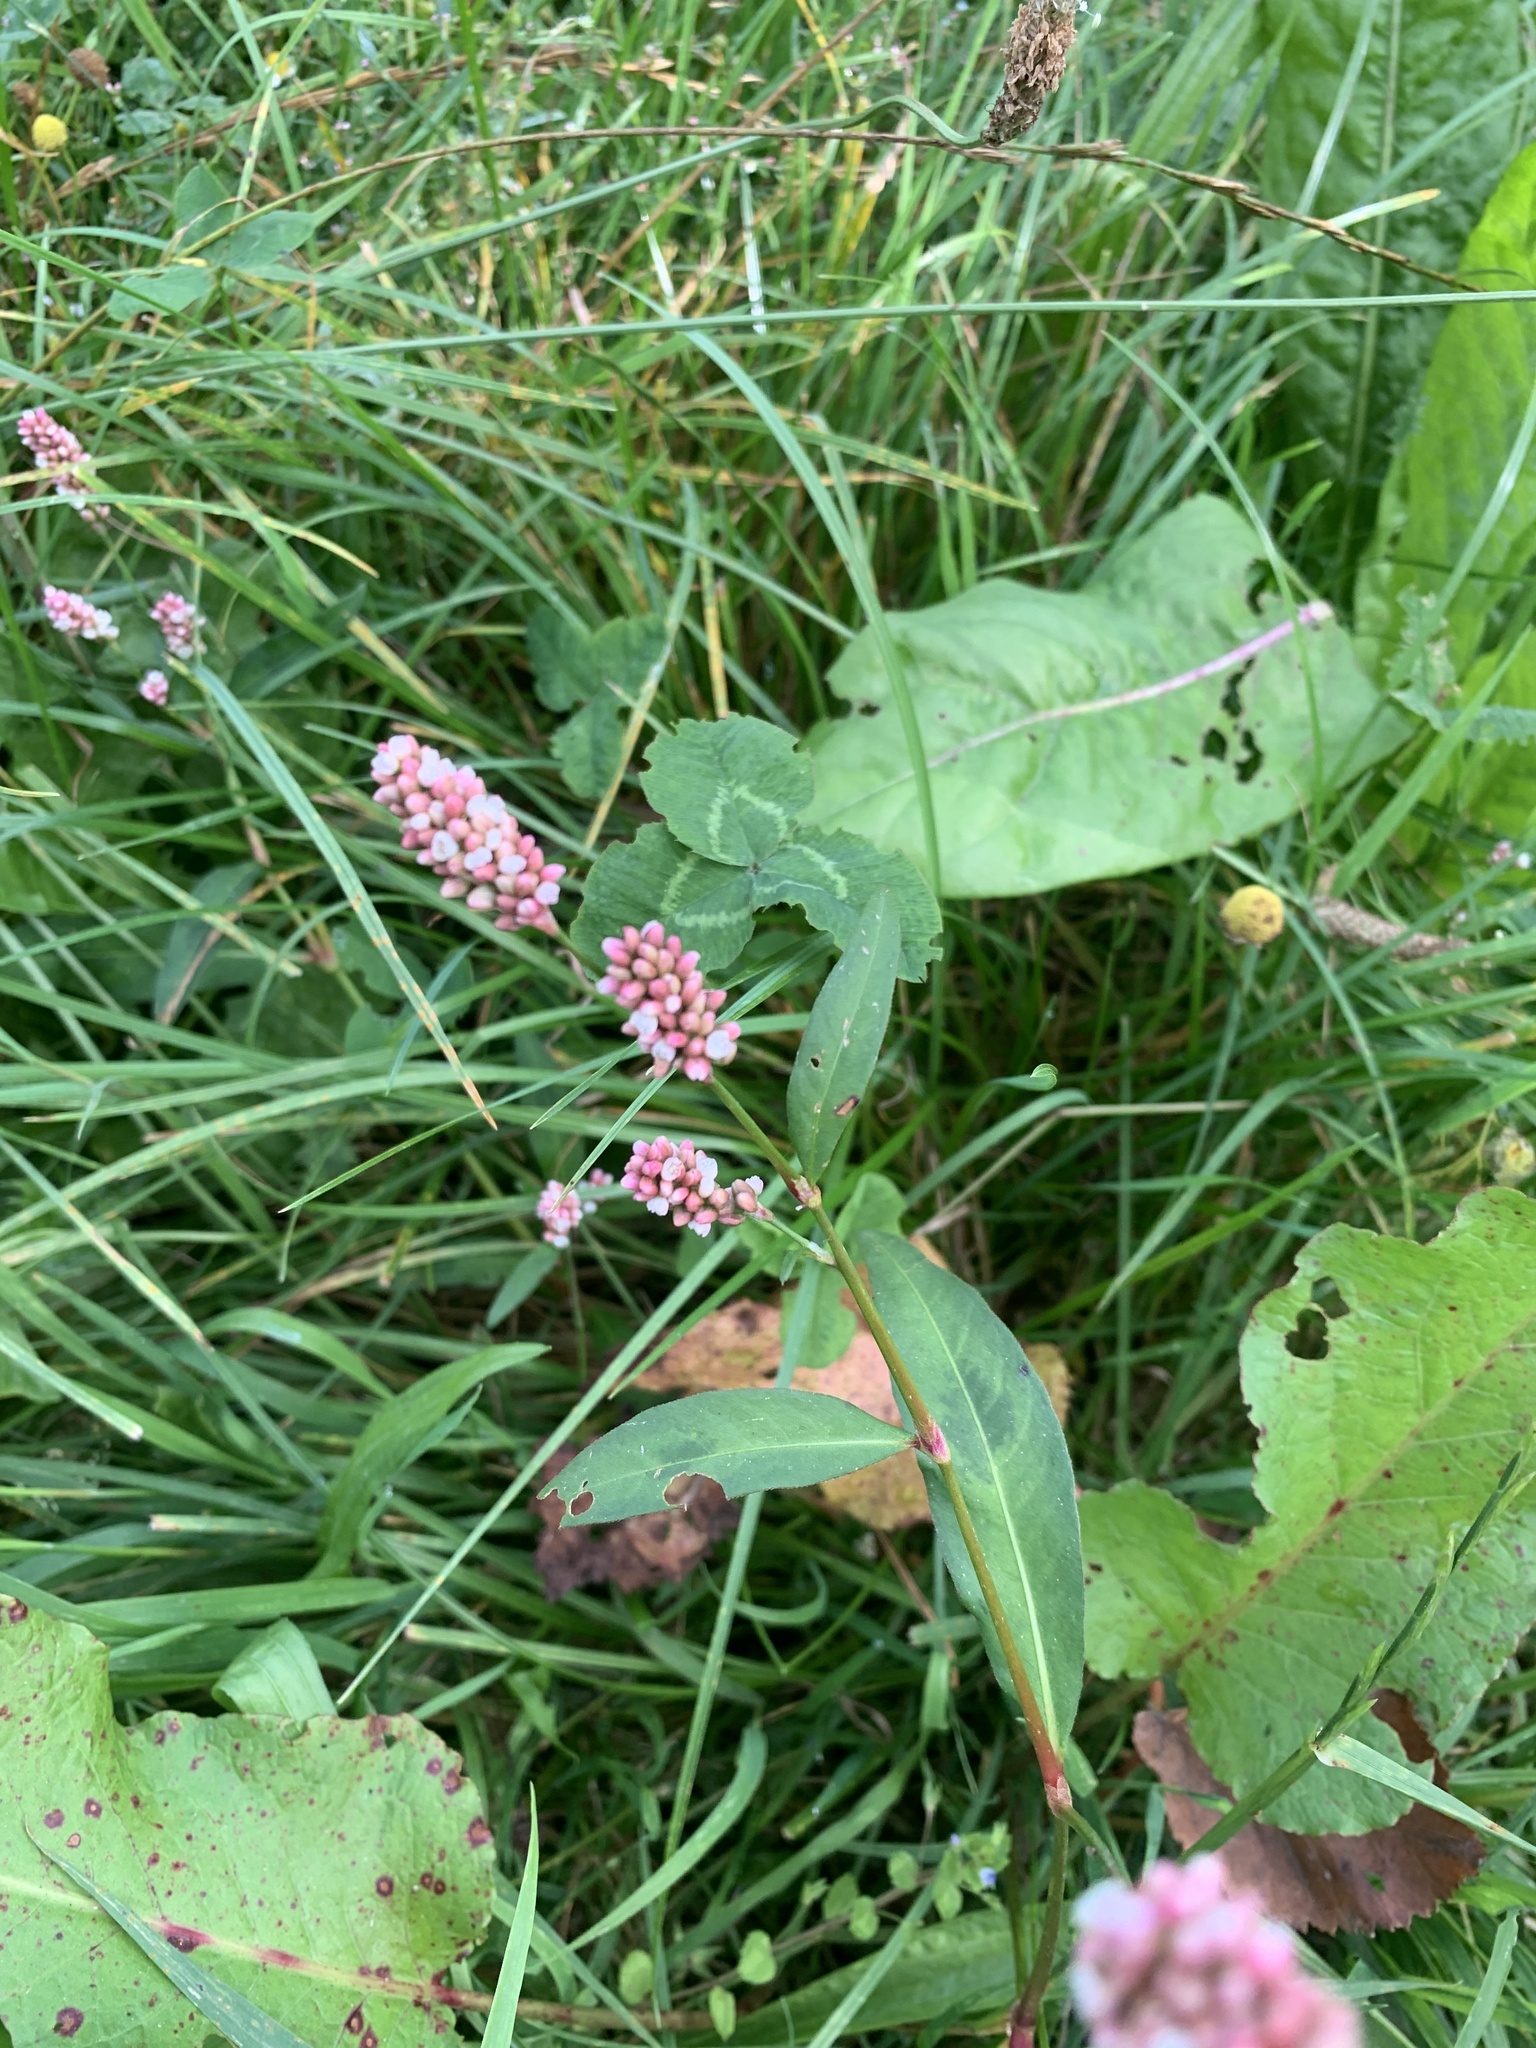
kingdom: Plantae
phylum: Tracheophyta
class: Magnoliopsida
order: Caryophyllales
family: Polygonaceae
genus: Persicaria
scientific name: Persicaria maculosa
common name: Redshank
